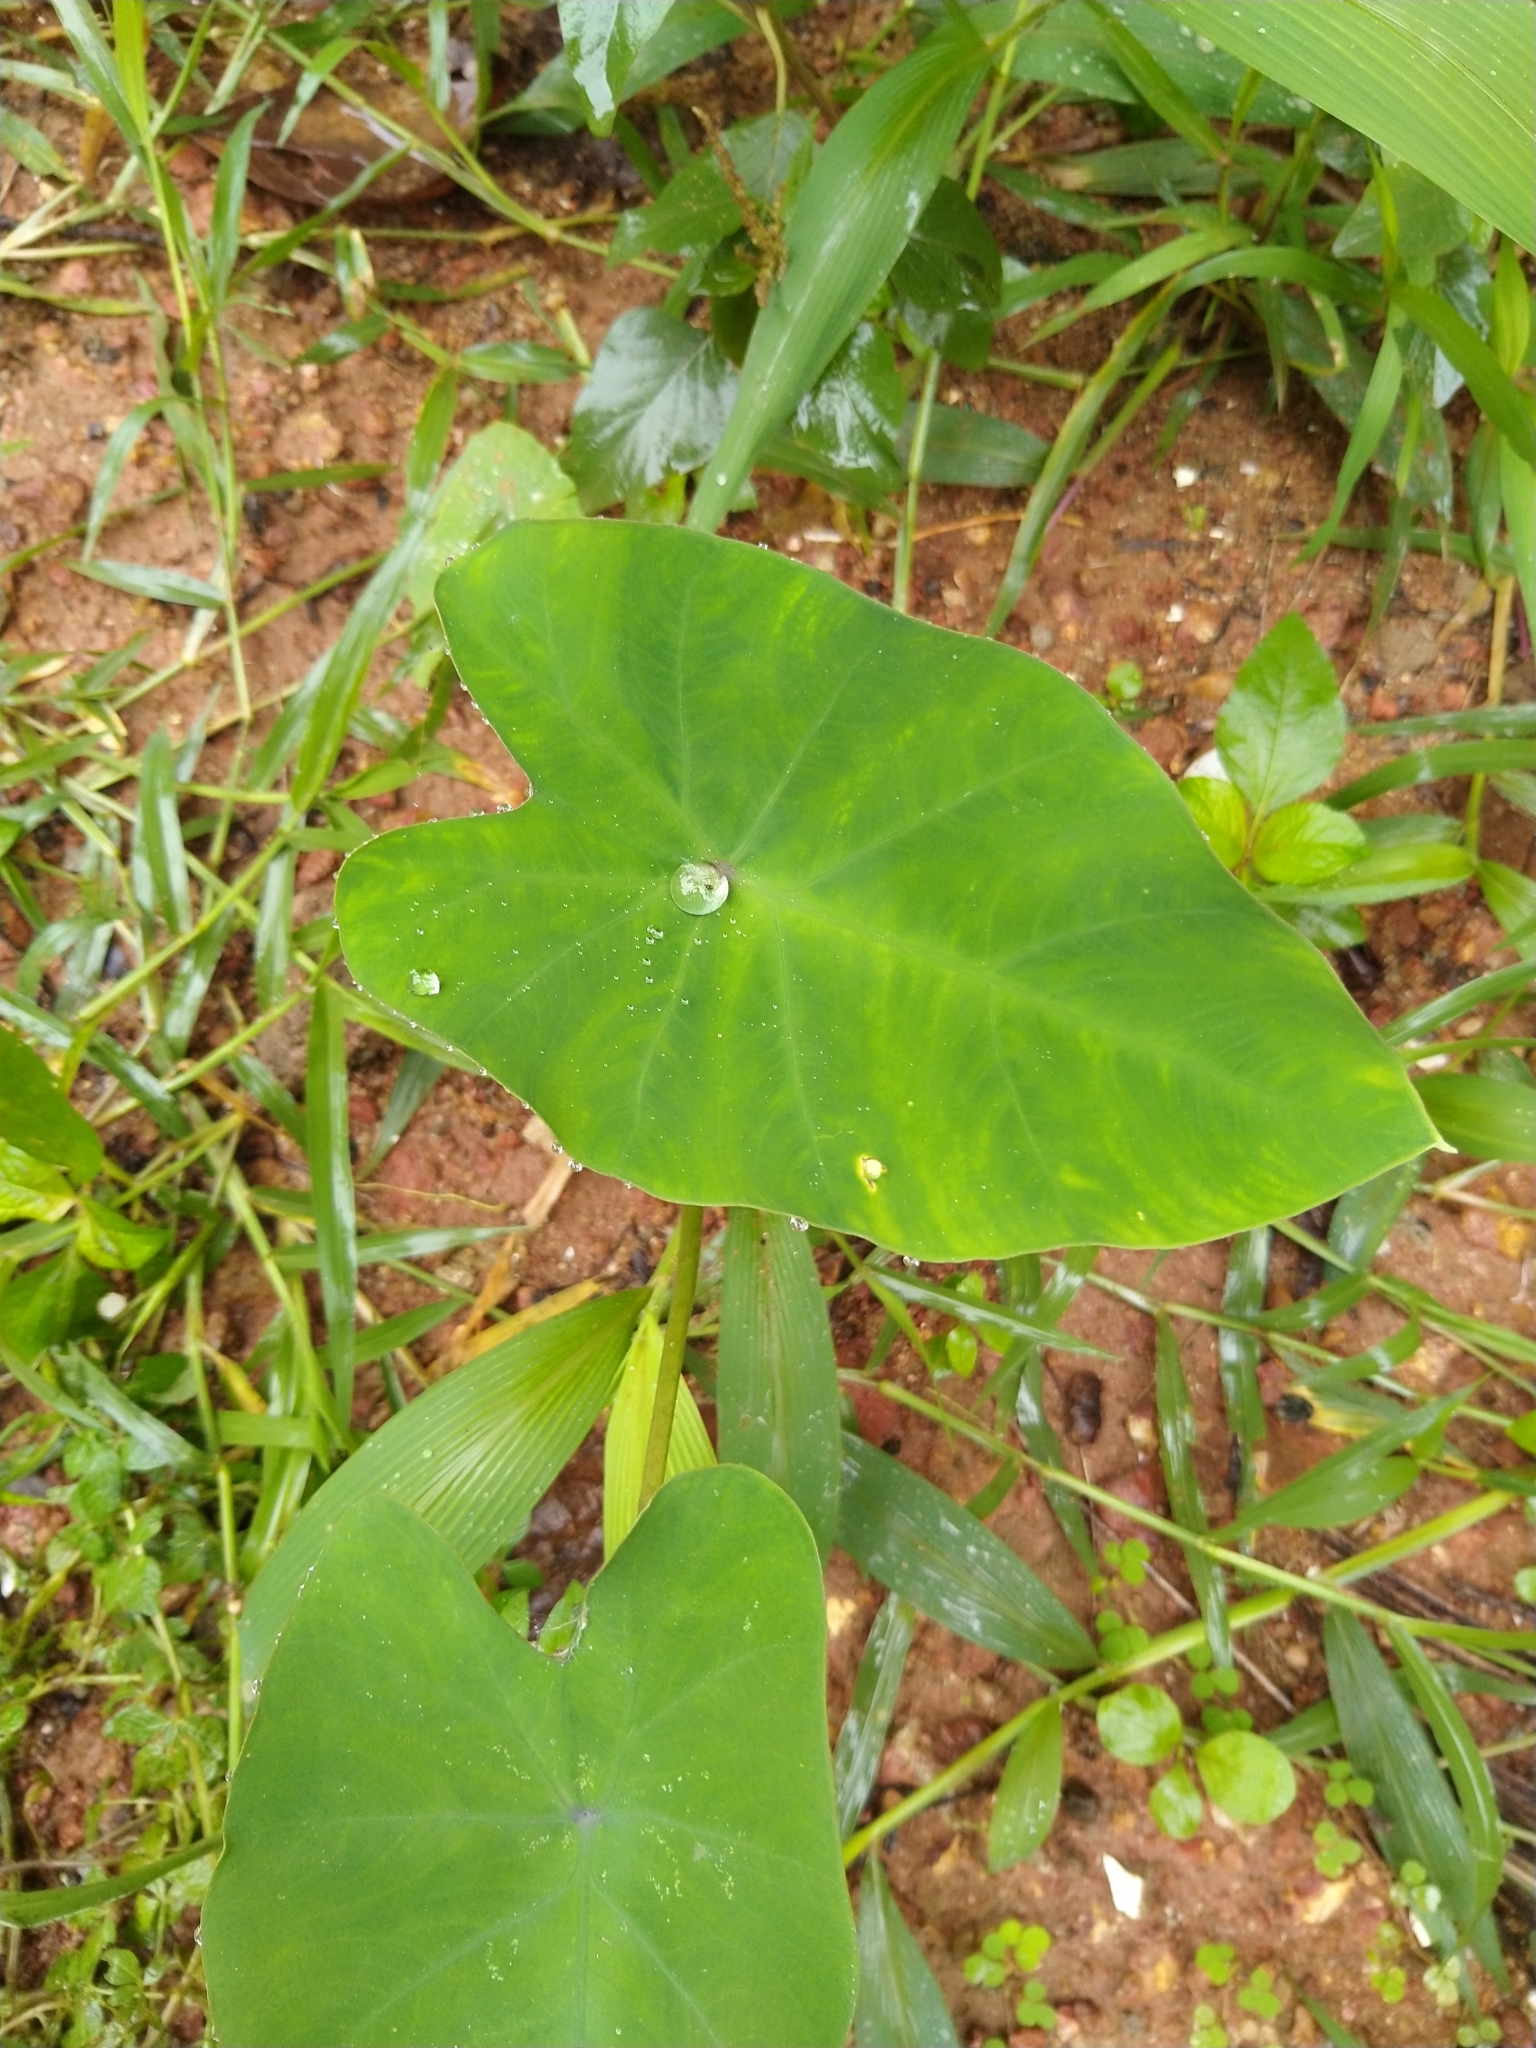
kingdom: Plantae
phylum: Tracheophyta
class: Liliopsida
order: Alismatales
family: Araceae
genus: Colocasia
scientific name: Colocasia esculenta
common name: Taro
